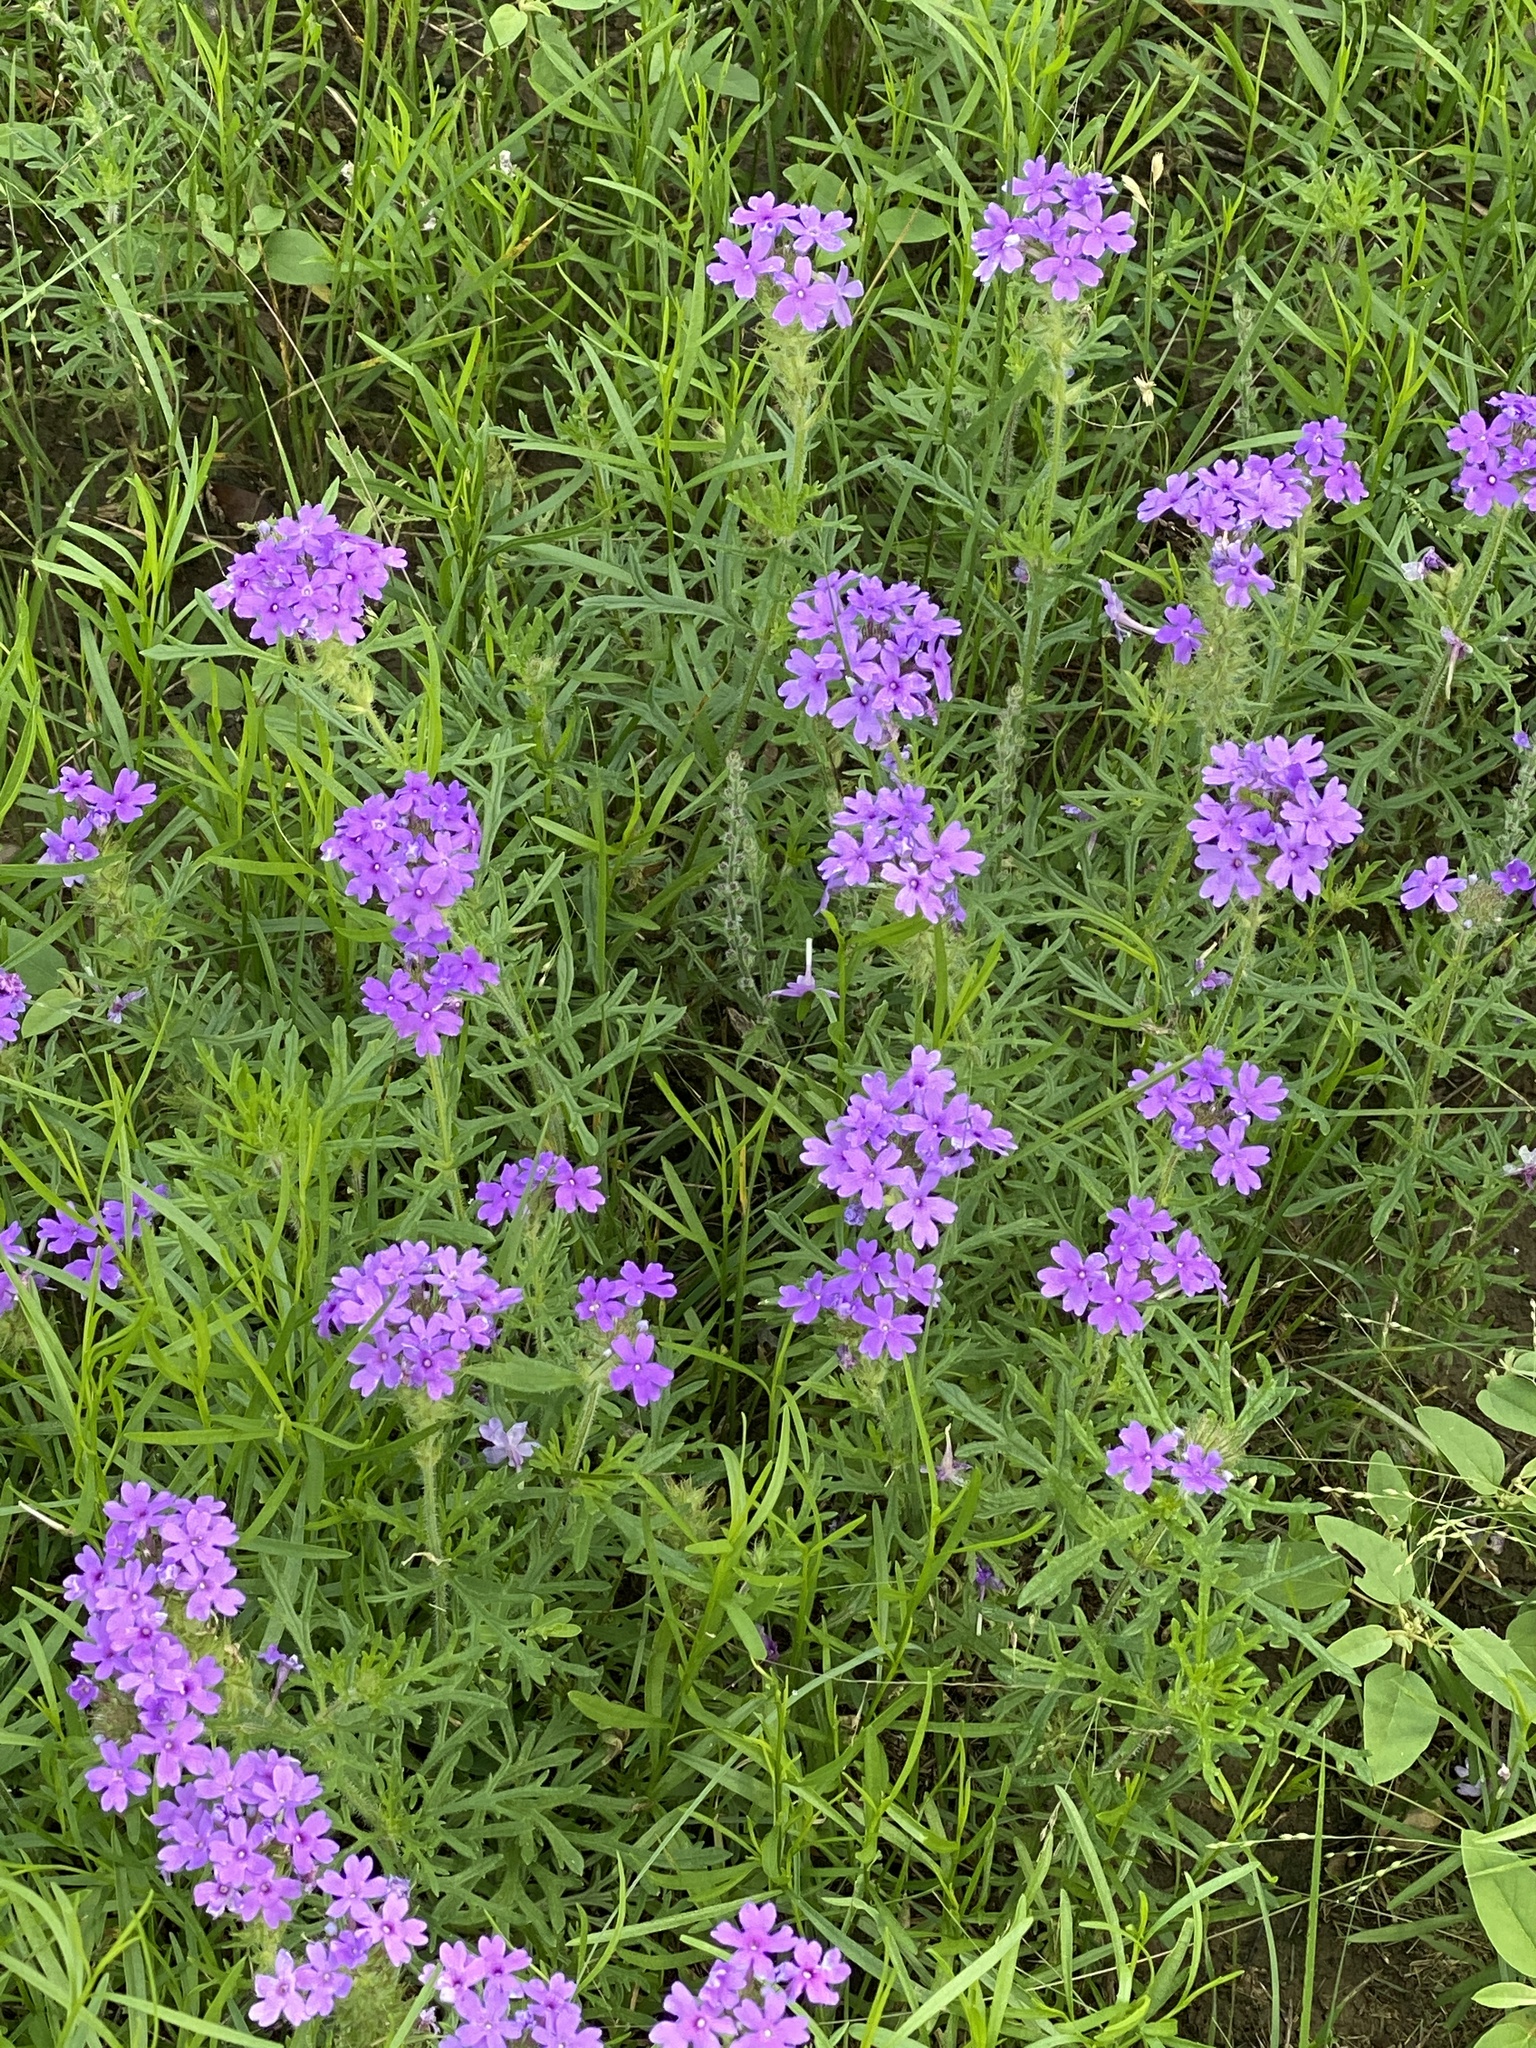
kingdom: Plantae
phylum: Tracheophyta
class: Magnoliopsida
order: Lamiales
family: Verbenaceae
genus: Verbena
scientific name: Verbena bipinnatifida
